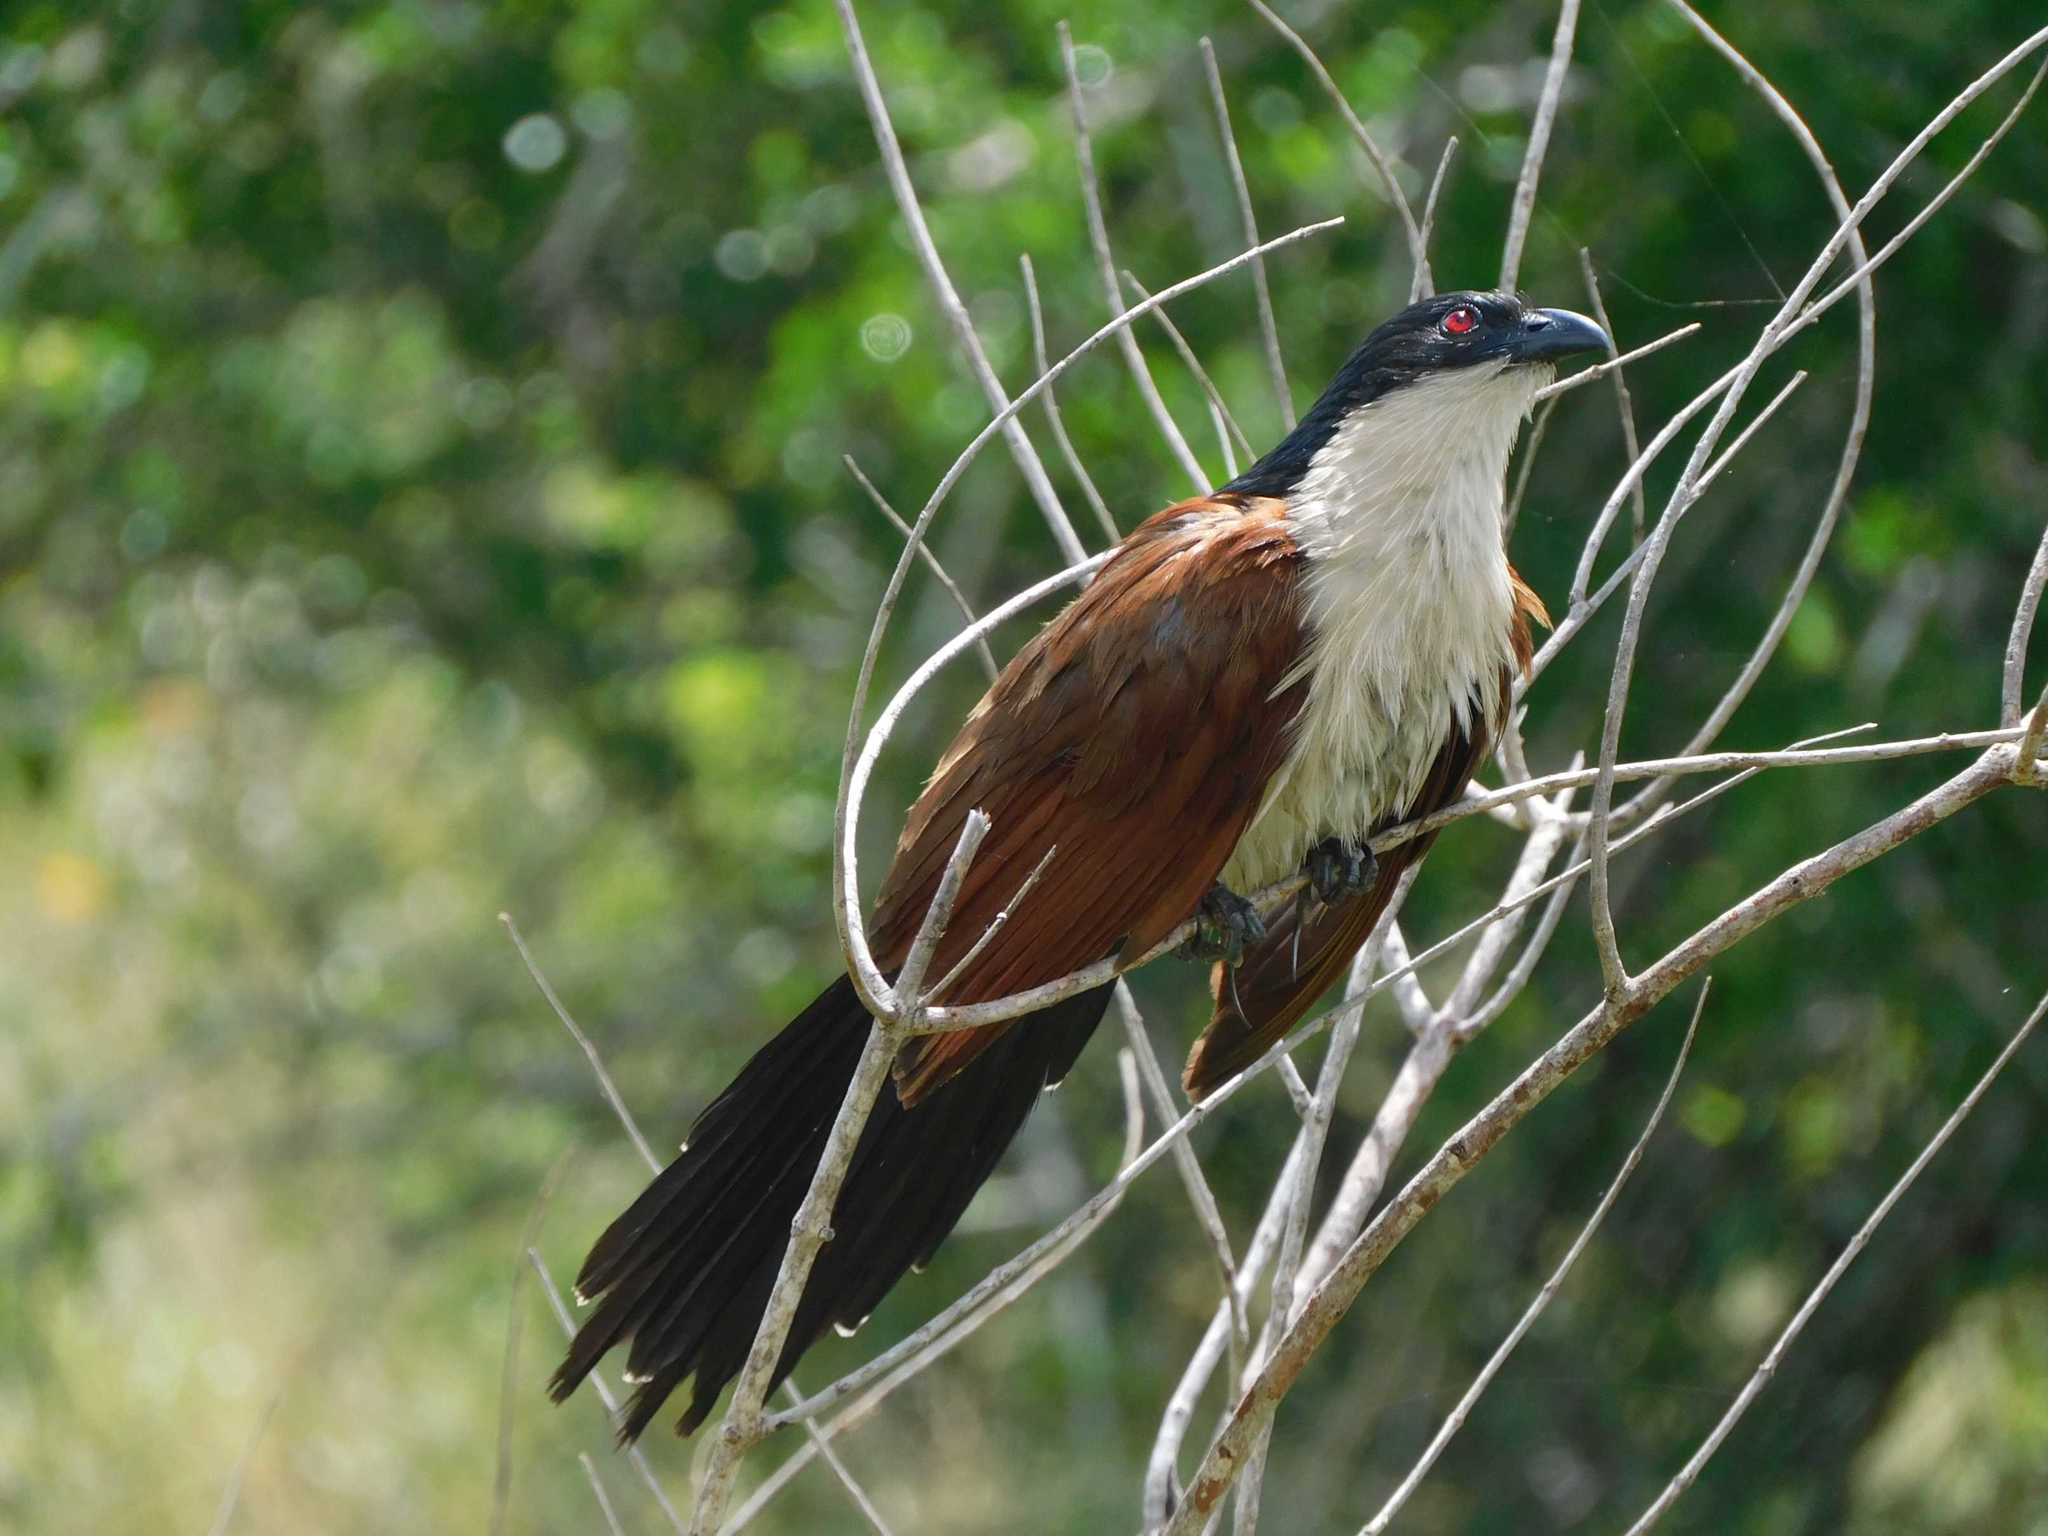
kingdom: Animalia
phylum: Chordata
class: Aves
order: Cuculiformes
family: Cuculidae
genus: Centropus
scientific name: Centropus superciliosus
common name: White-browed coucal
